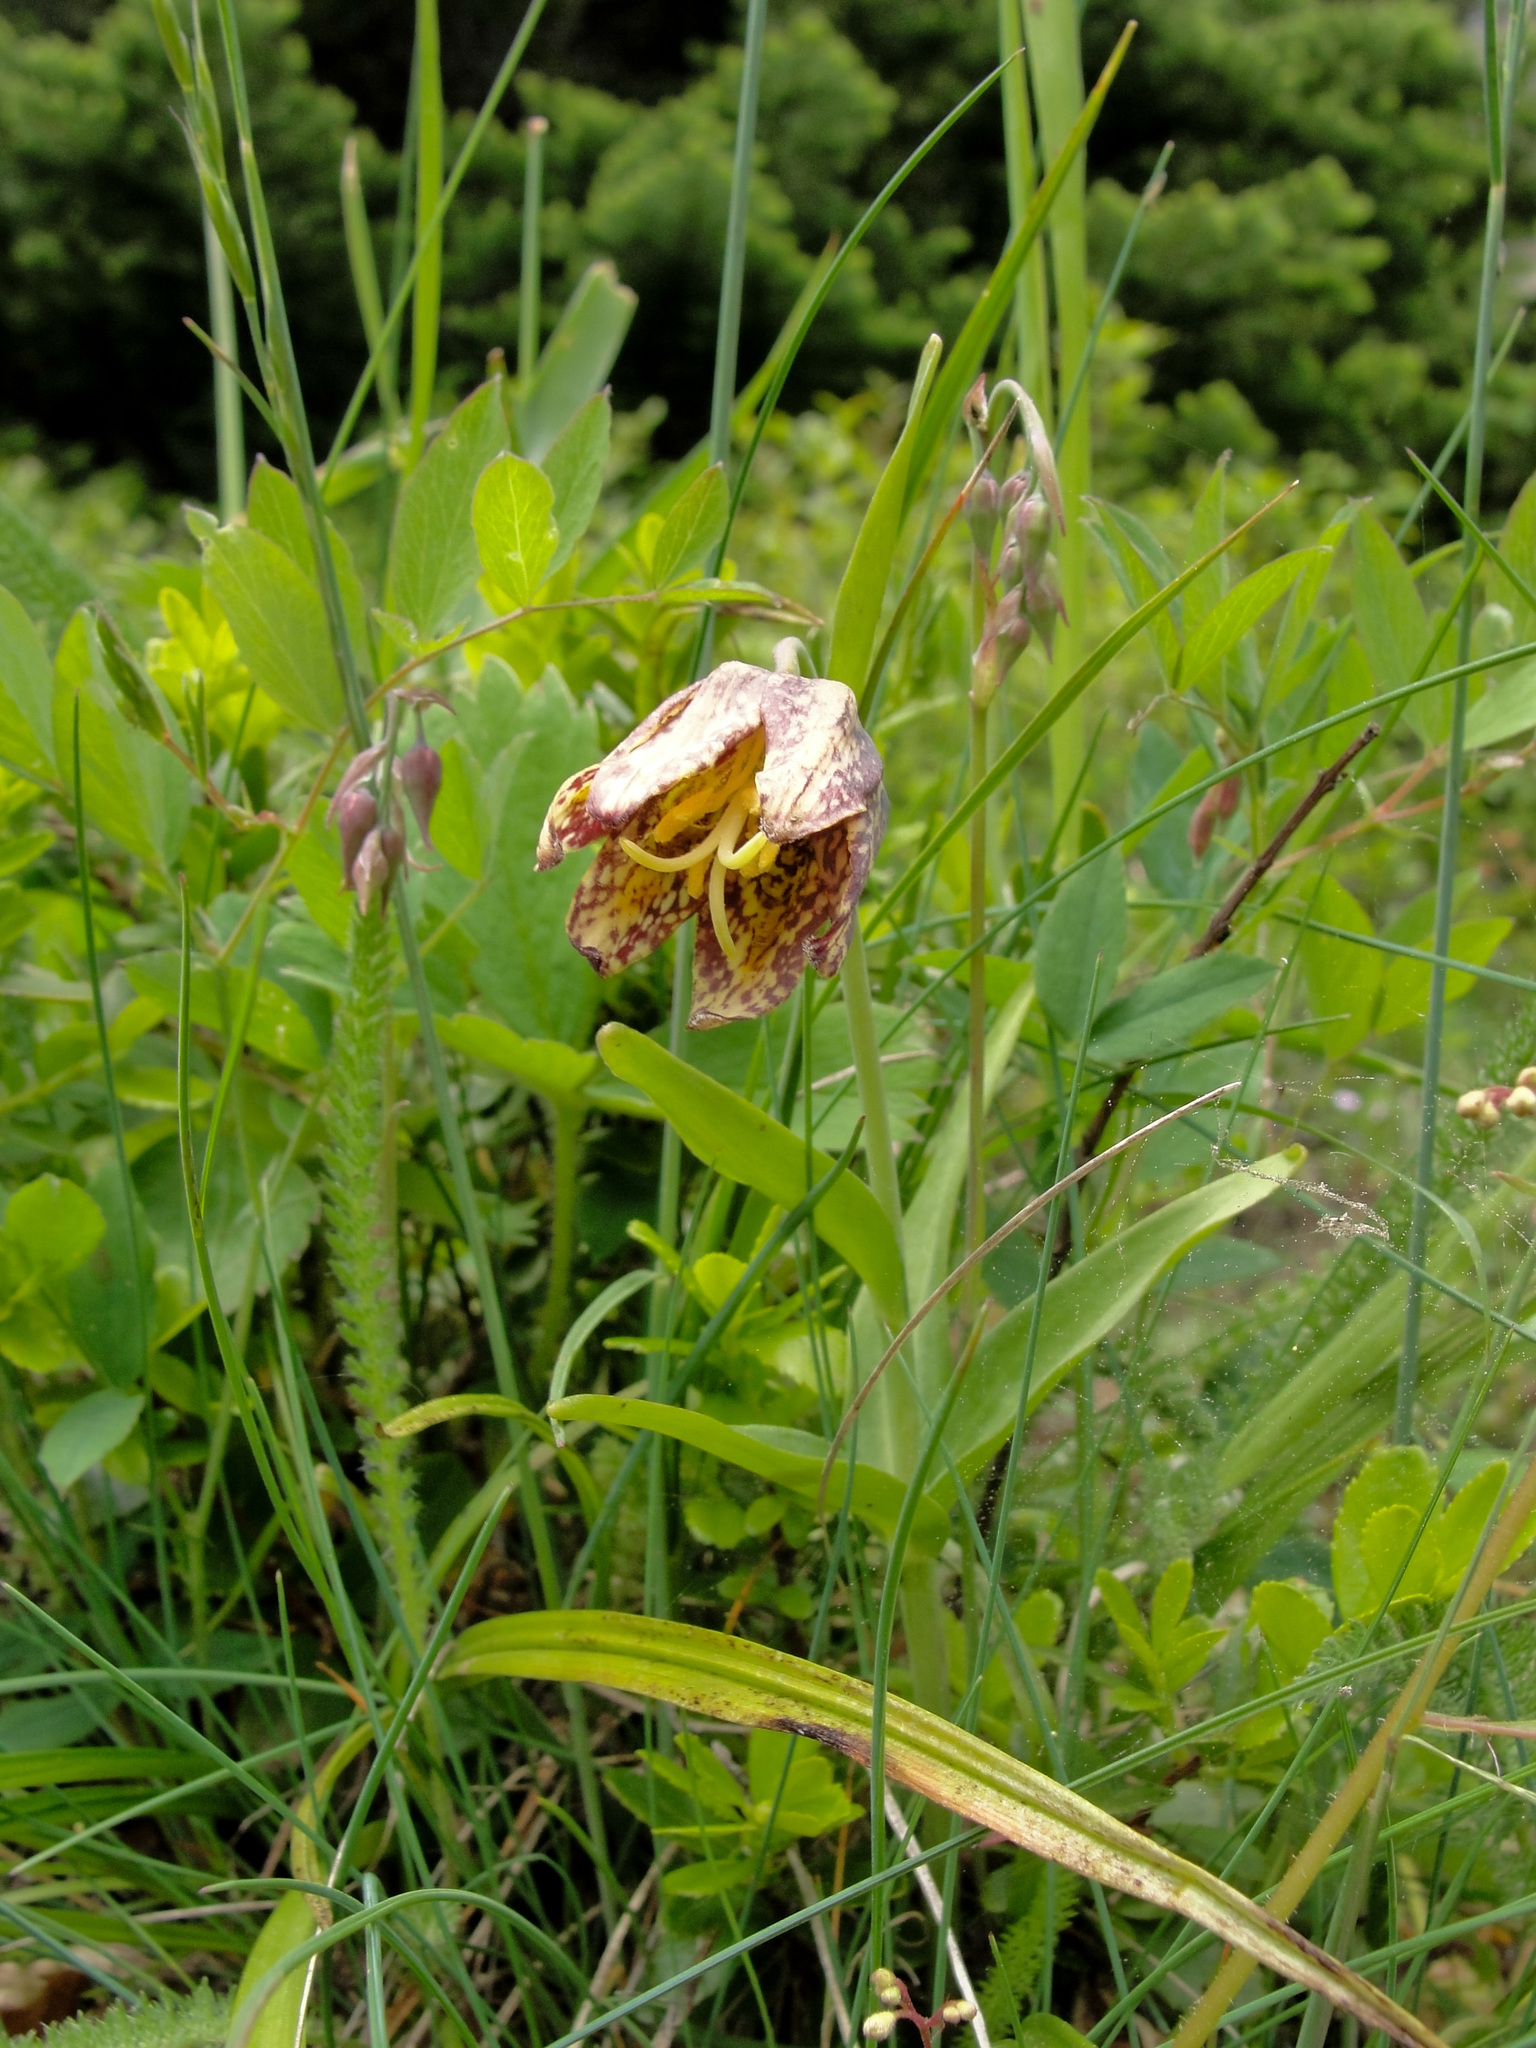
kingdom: Plantae
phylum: Tracheophyta
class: Liliopsida
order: Liliales
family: Liliaceae
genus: Fritillaria
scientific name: Fritillaria affinis
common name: Ojai fritillary
